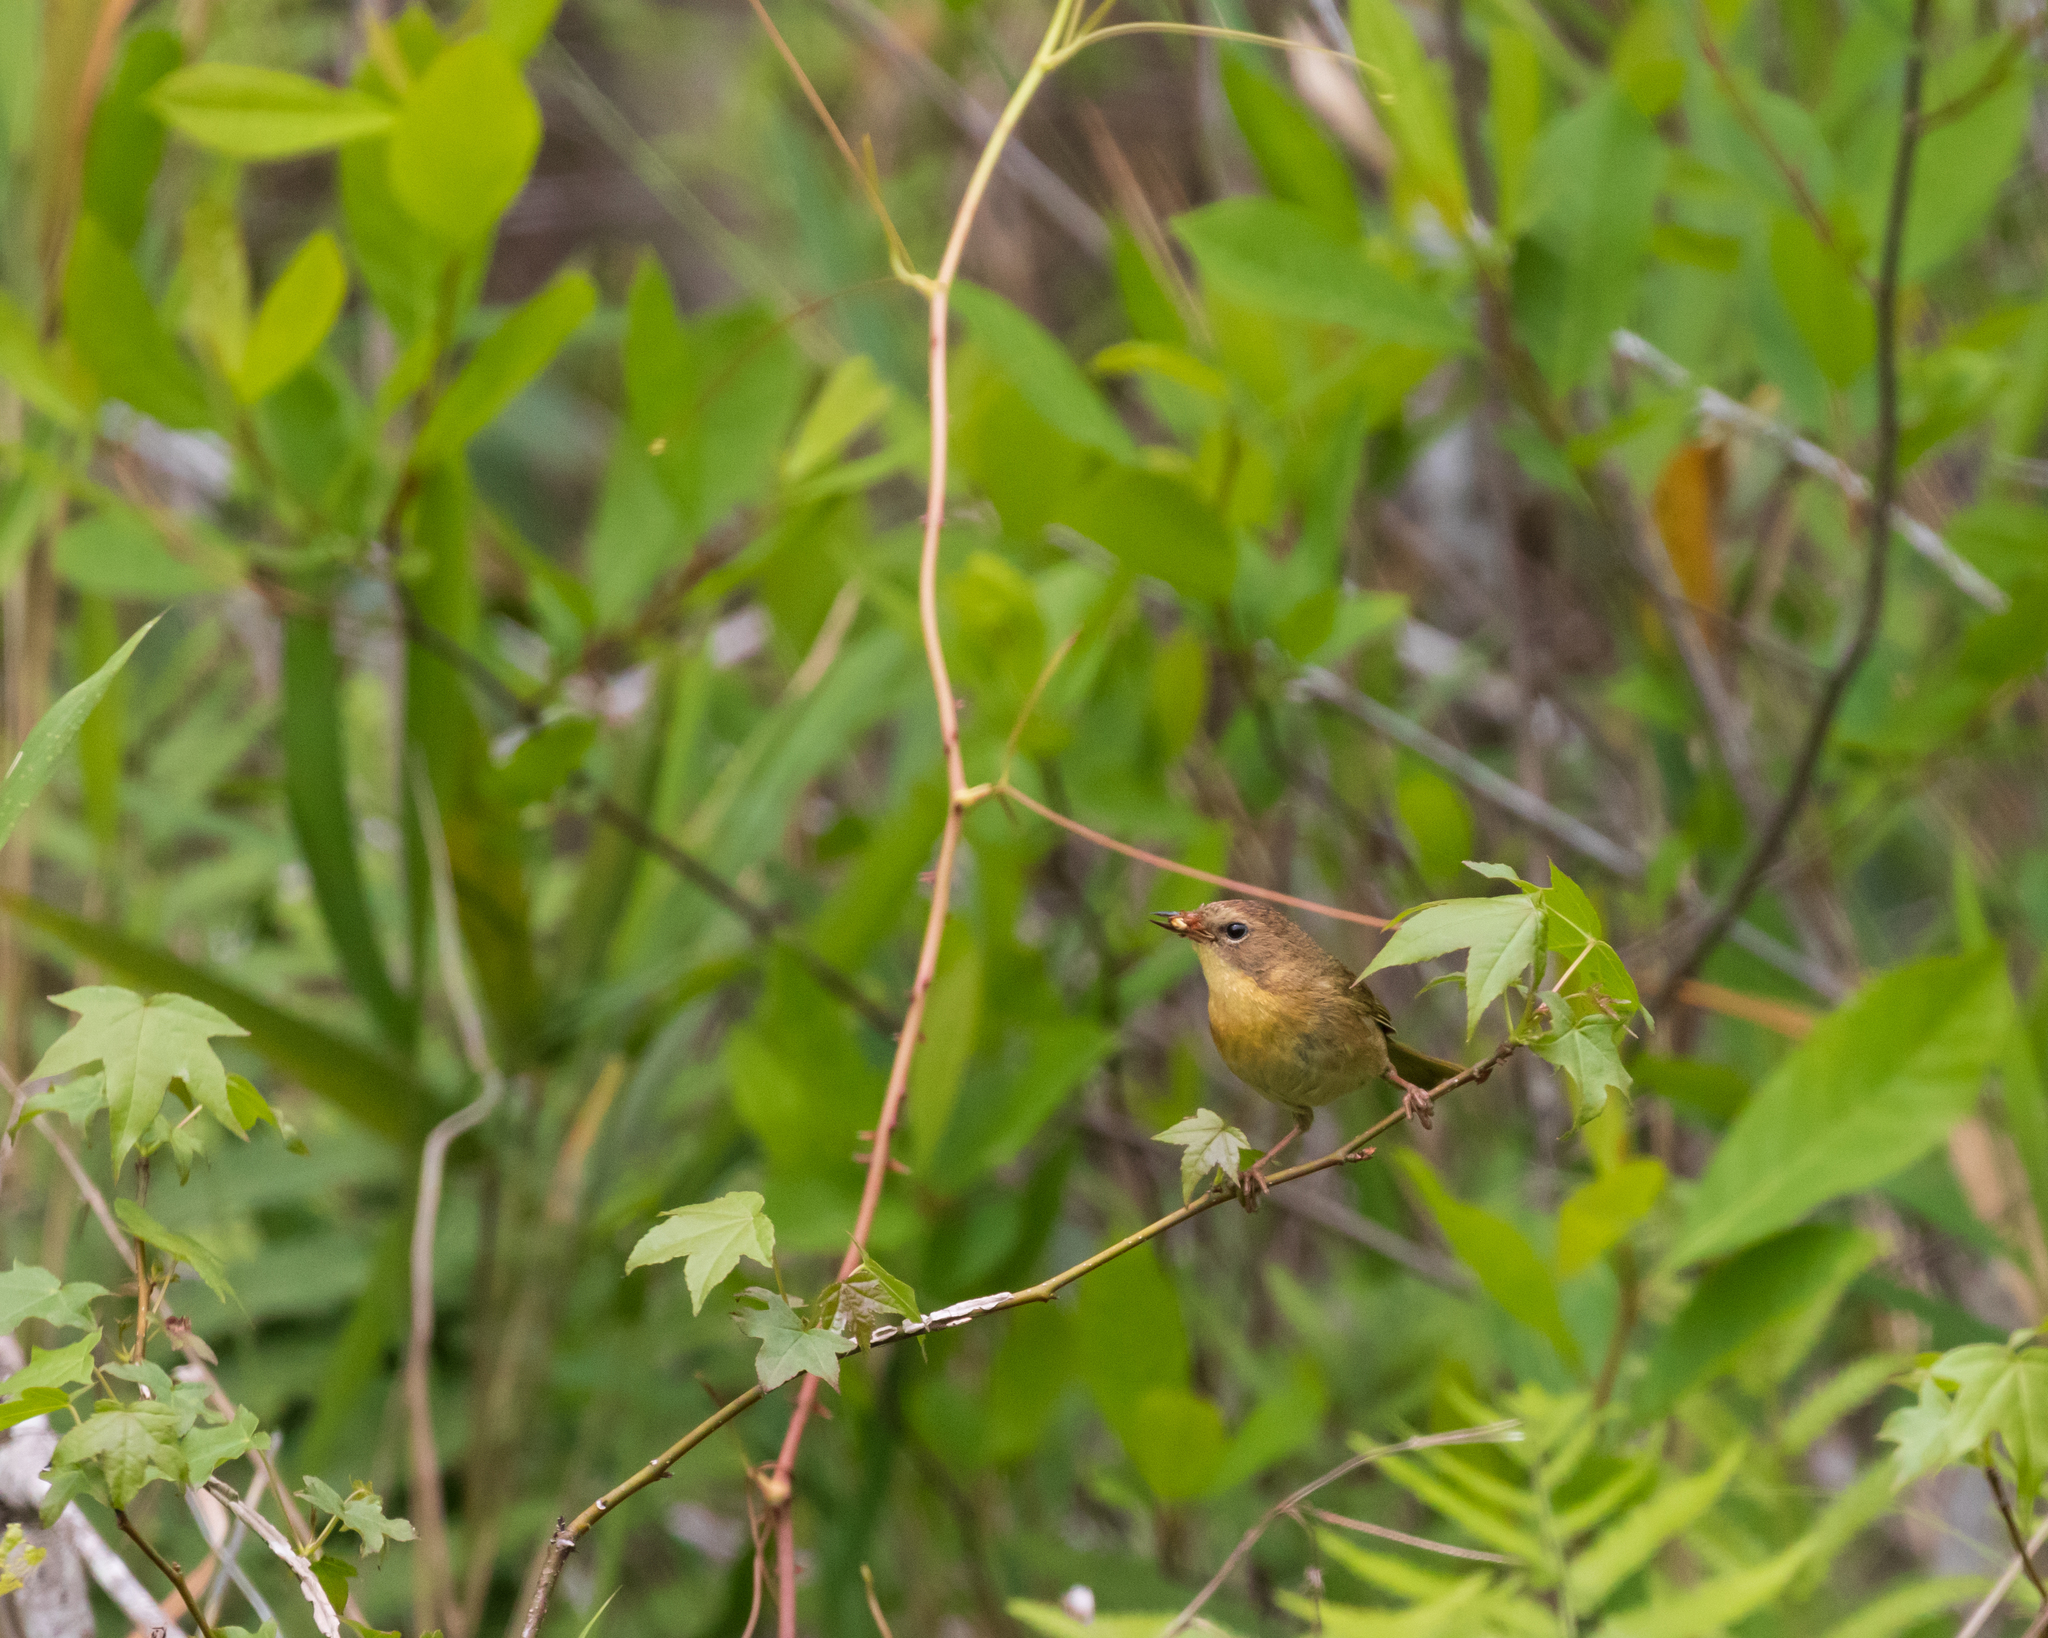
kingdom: Animalia
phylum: Chordata
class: Aves
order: Passeriformes
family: Parulidae
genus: Geothlypis
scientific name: Geothlypis trichas
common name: Common yellowthroat
